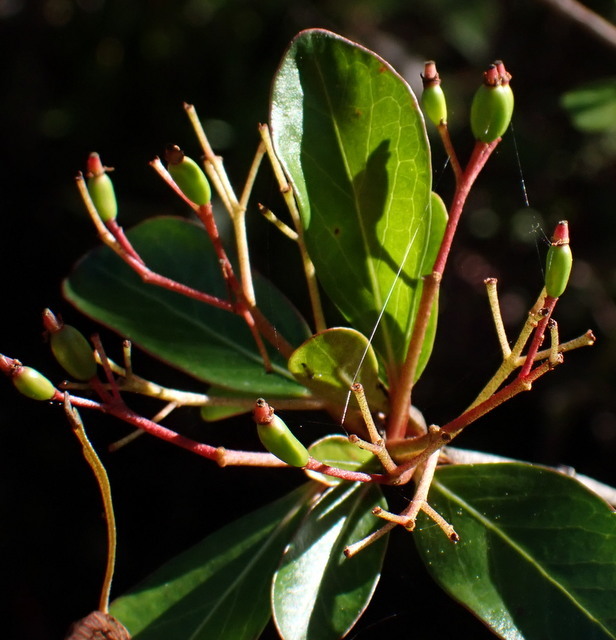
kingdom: Plantae
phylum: Tracheophyta
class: Magnoliopsida
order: Dipsacales
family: Viburnaceae
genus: Viburnum
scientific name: Viburnum obovatum
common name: Walter's viburnum
